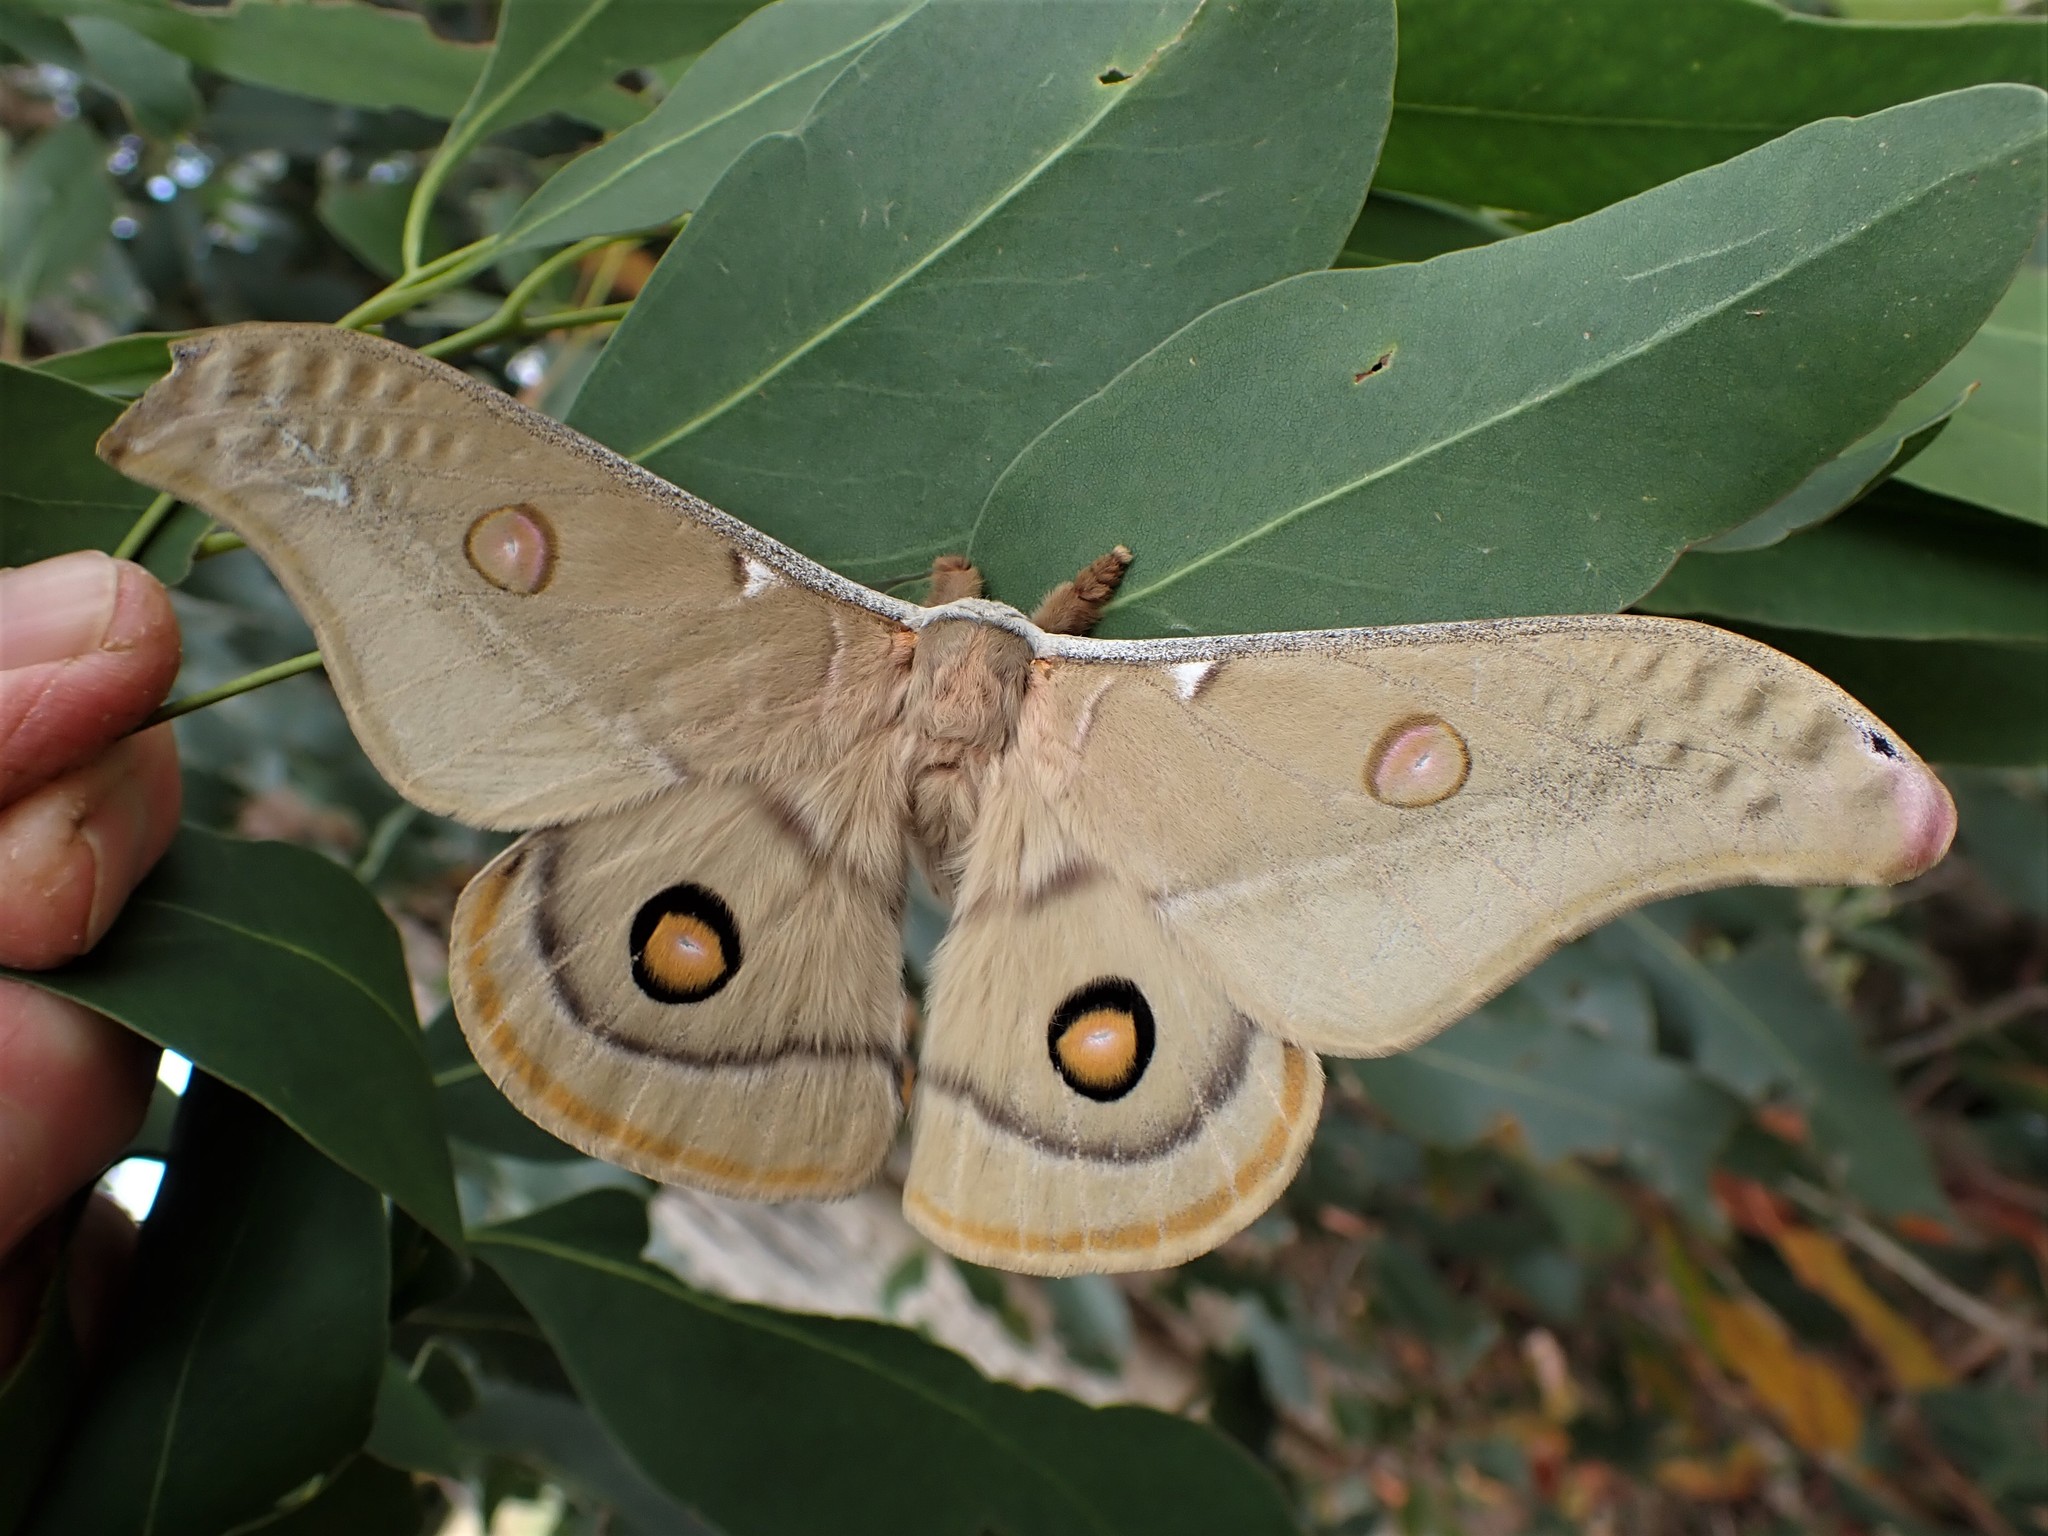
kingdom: Animalia
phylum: Arthropoda
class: Insecta
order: Lepidoptera
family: Saturniidae
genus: Opodiphthera
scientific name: Opodiphthera
